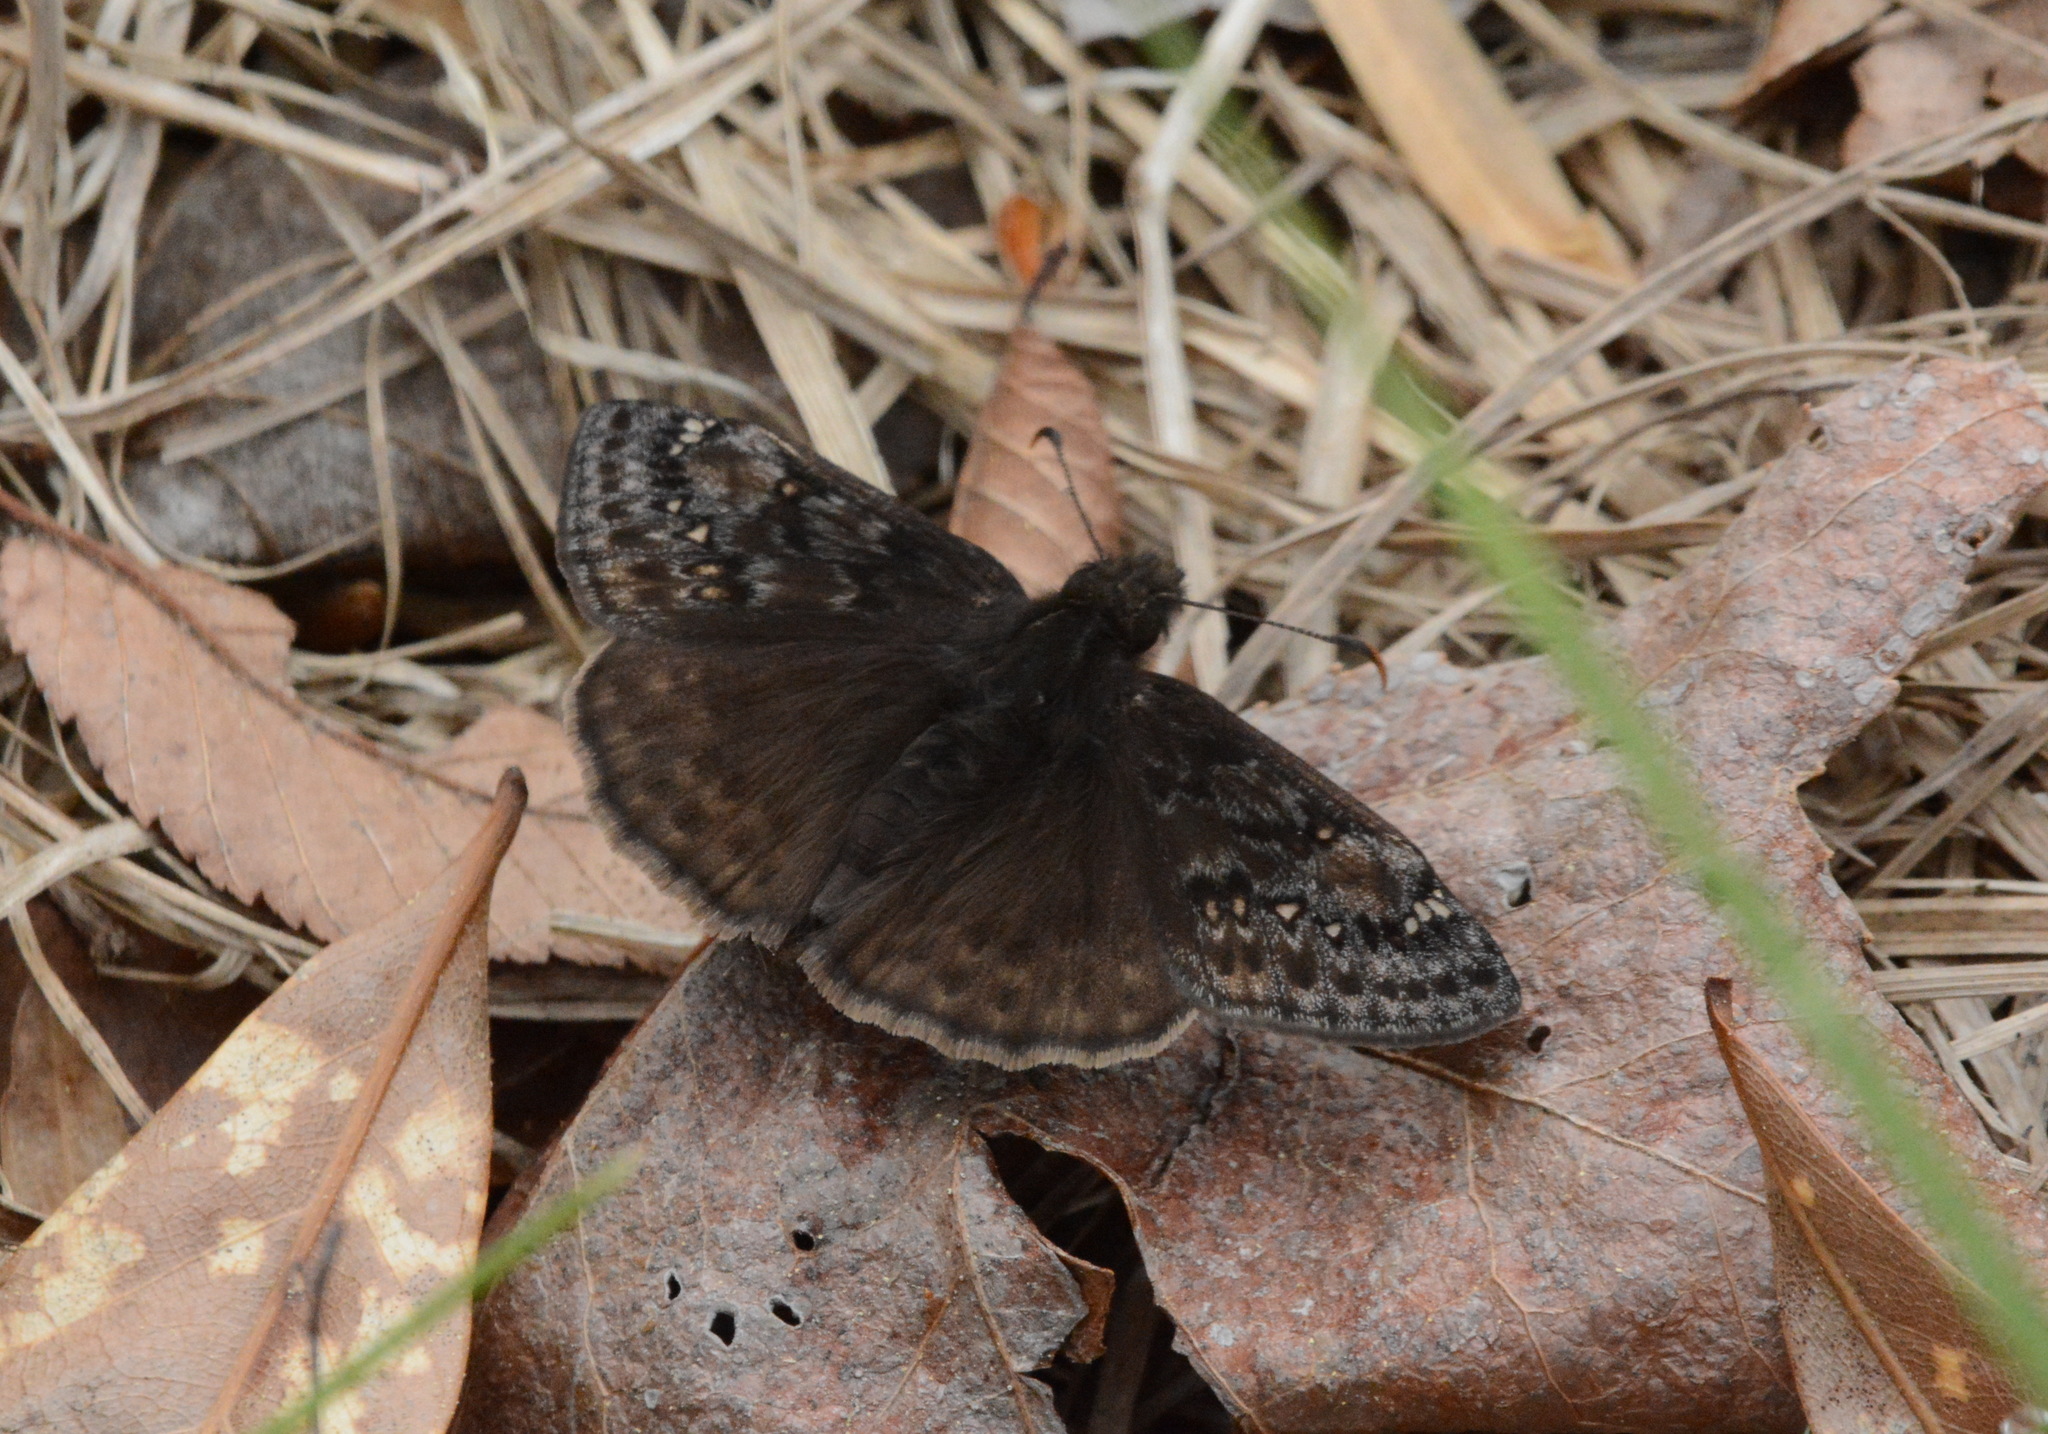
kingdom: Animalia
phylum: Arthropoda
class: Insecta
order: Lepidoptera
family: Hesperiidae
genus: Erynnis
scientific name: Erynnis juvenalis
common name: Juvenal's duskywing
